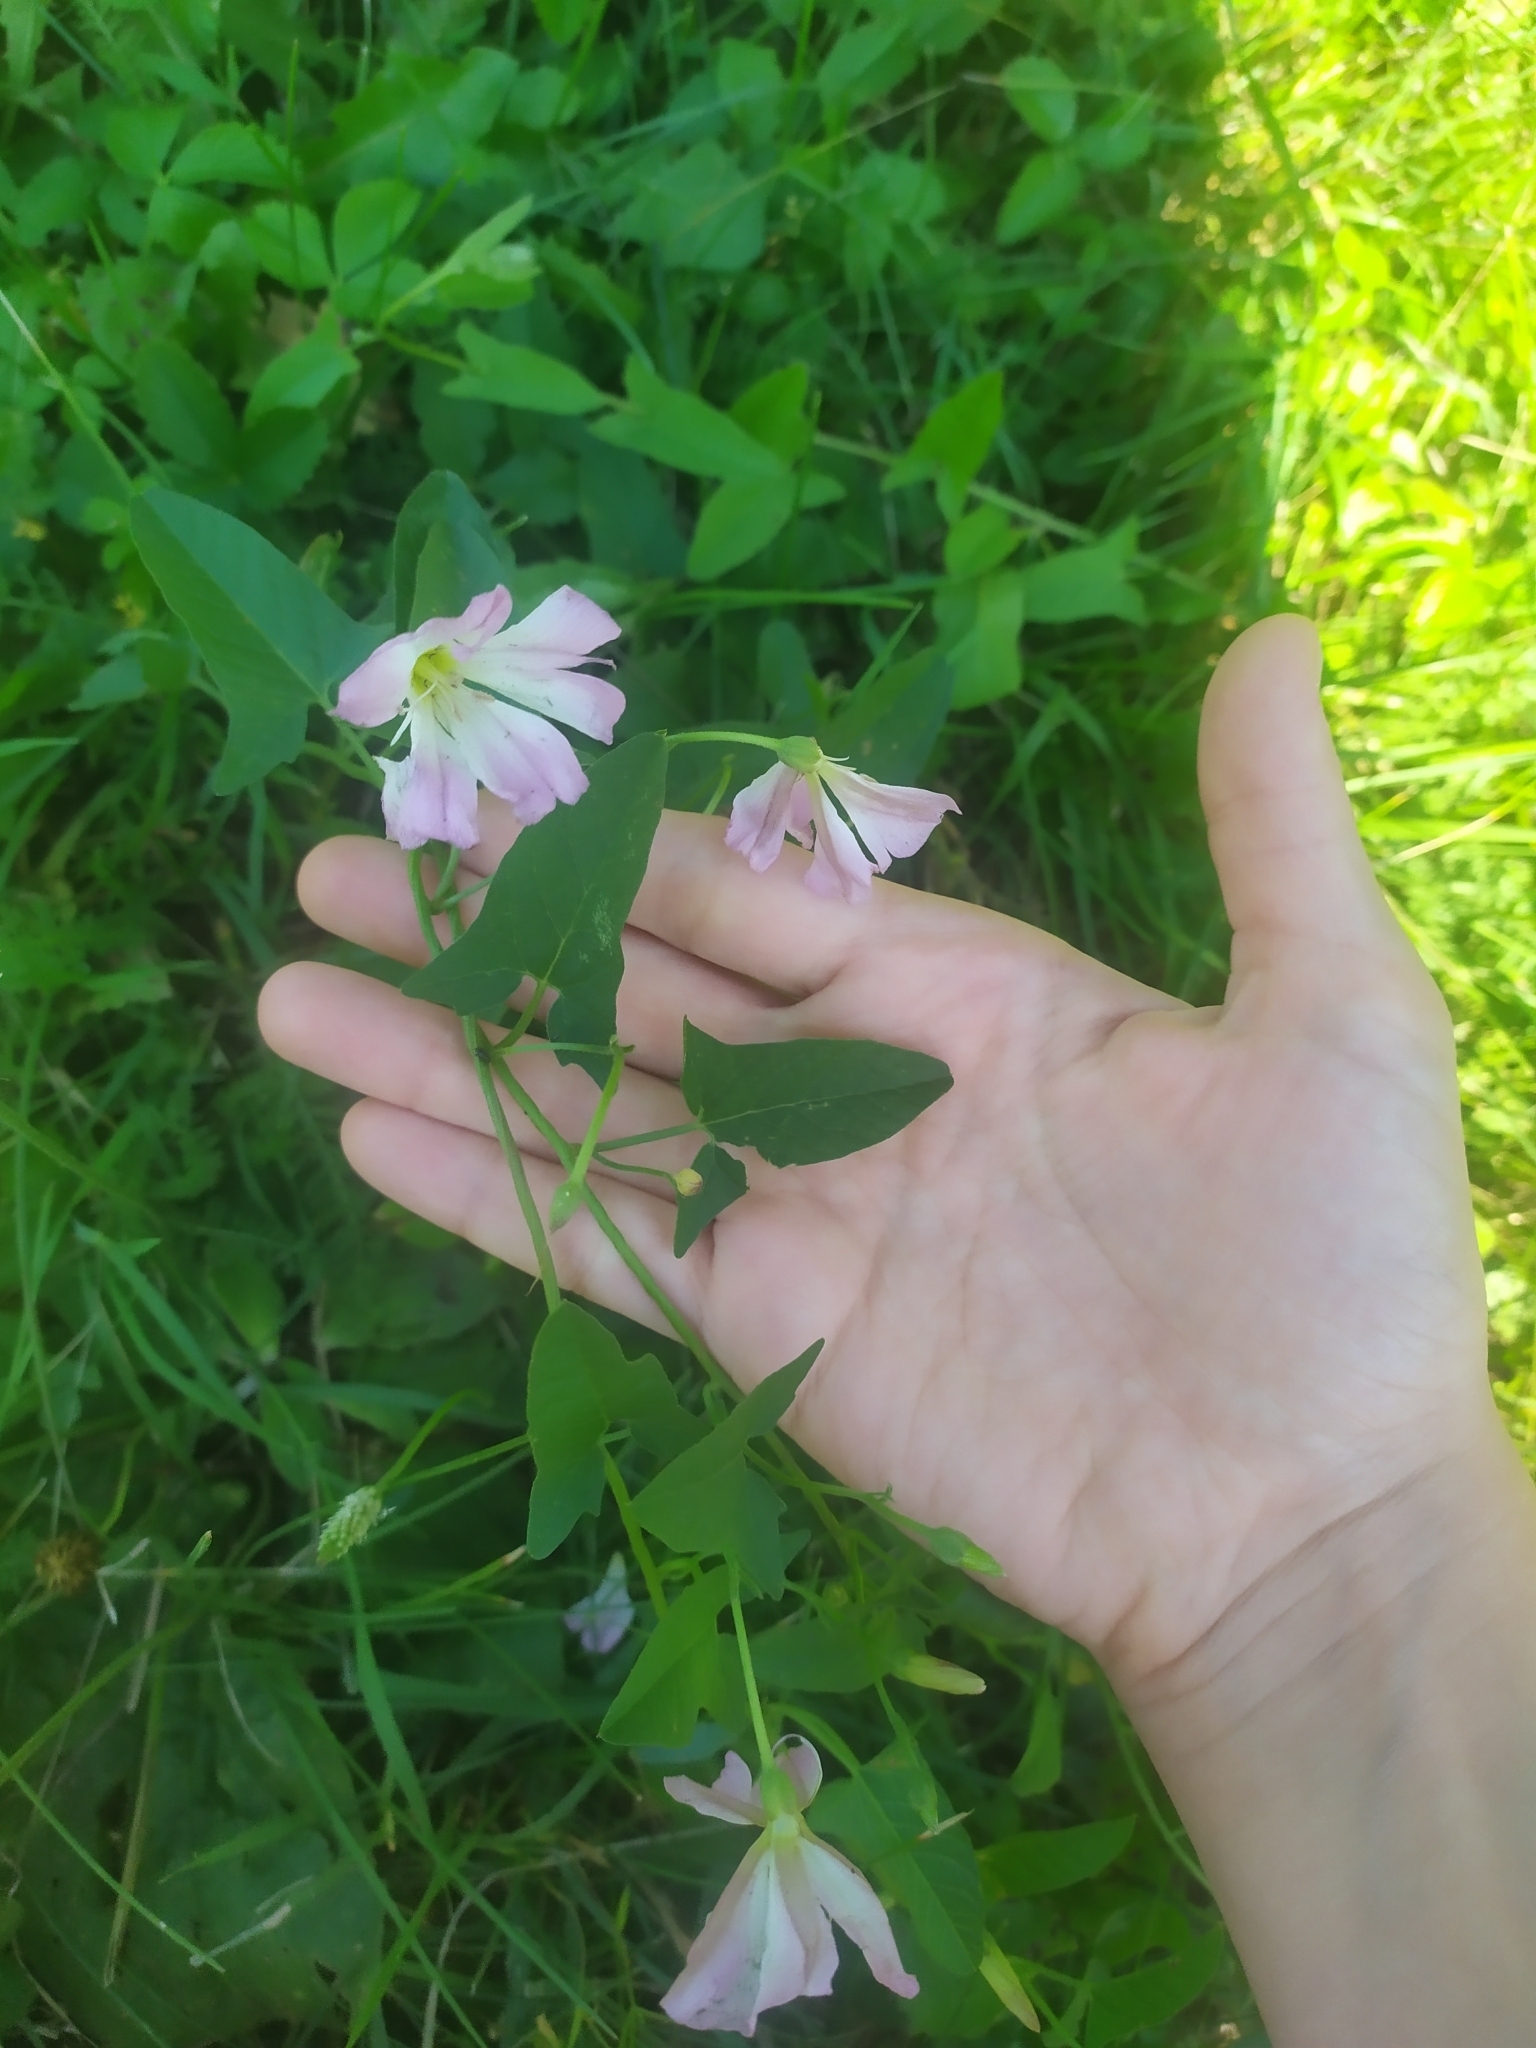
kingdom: Plantae
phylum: Tracheophyta
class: Magnoliopsida
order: Solanales
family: Convolvulaceae
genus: Convolvulus
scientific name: Convolvulus arvensis
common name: Field bindweed
